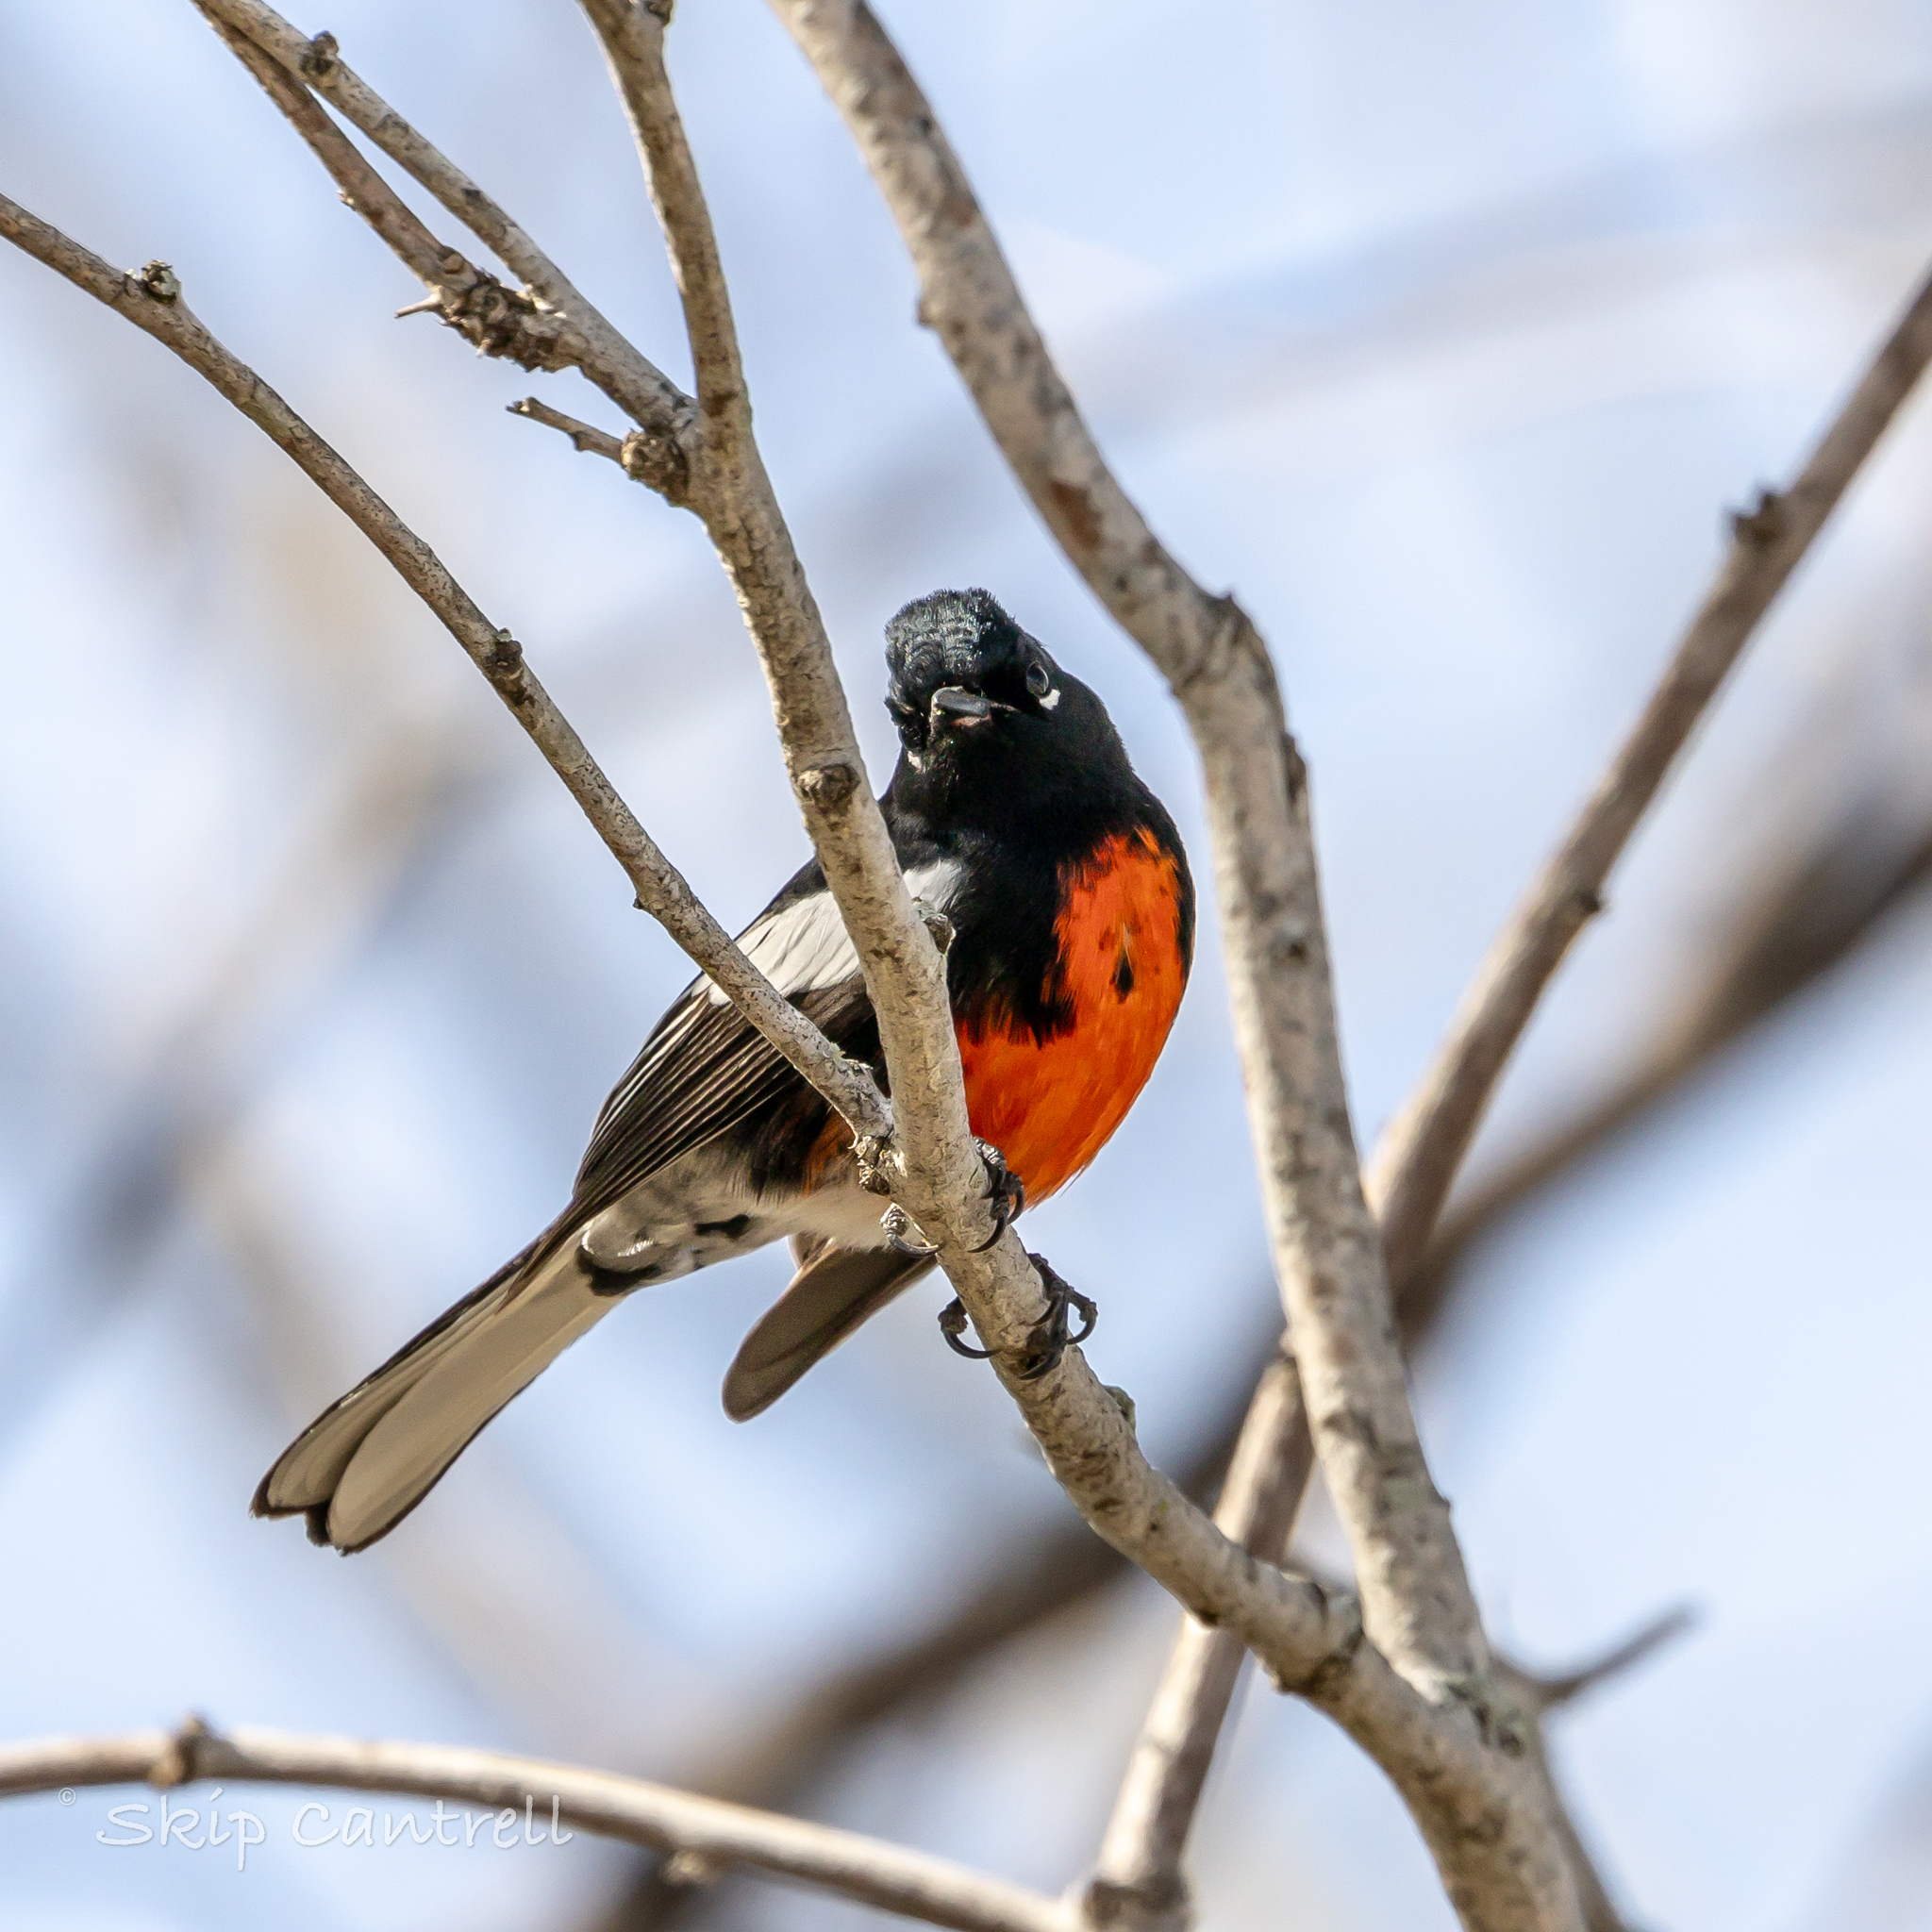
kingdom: Animalia
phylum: Chordata
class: Aves
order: Passeriformes
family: Parulidae
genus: Myioborus
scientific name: Myioborus pictus
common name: Painted whitestart
